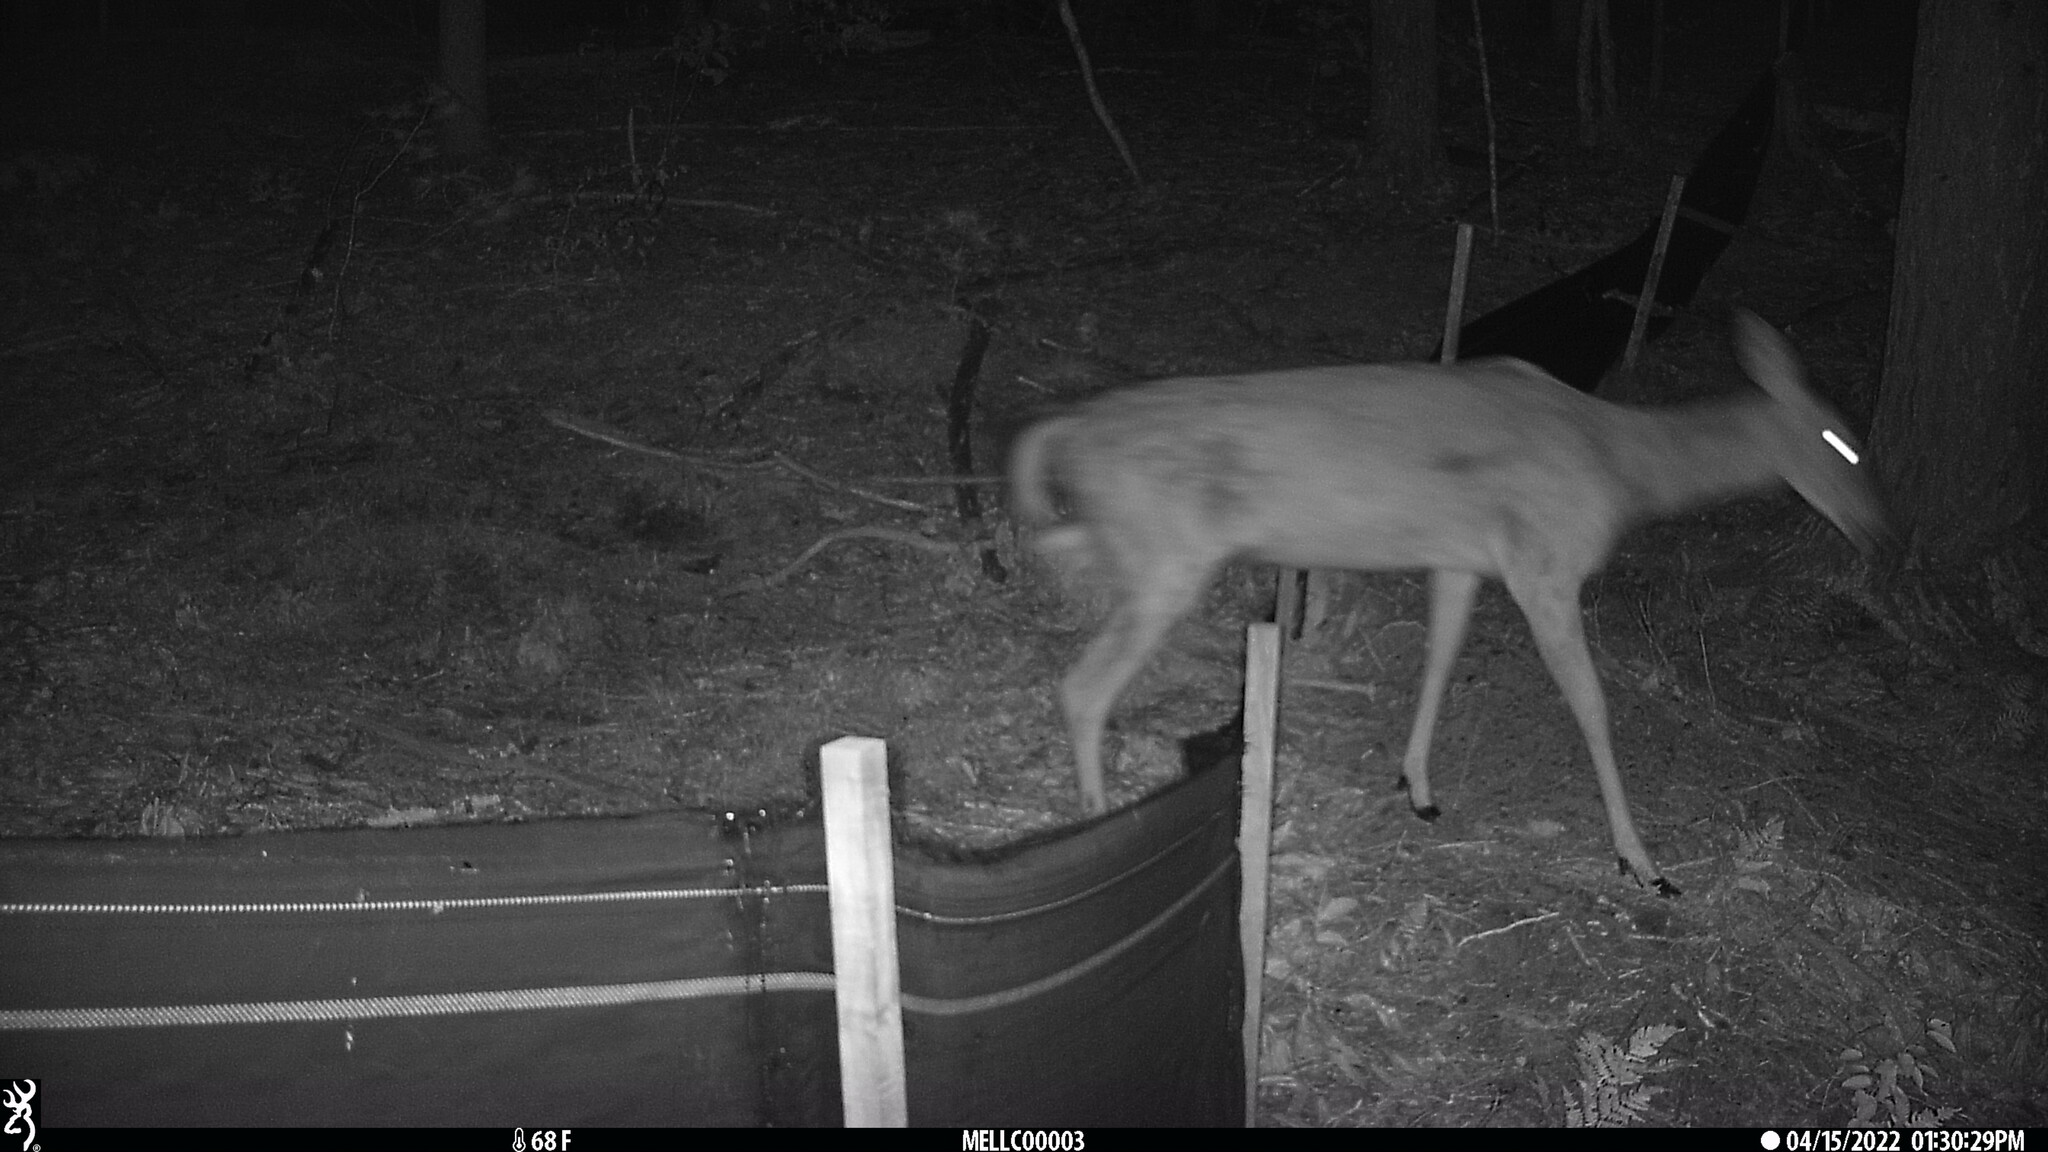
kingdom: Animalia
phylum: Chordata
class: Mammalia
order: Artiodactyla
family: Cervidae
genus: Odocoileus
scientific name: Odocoileus virginianus
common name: White-tailed deer
